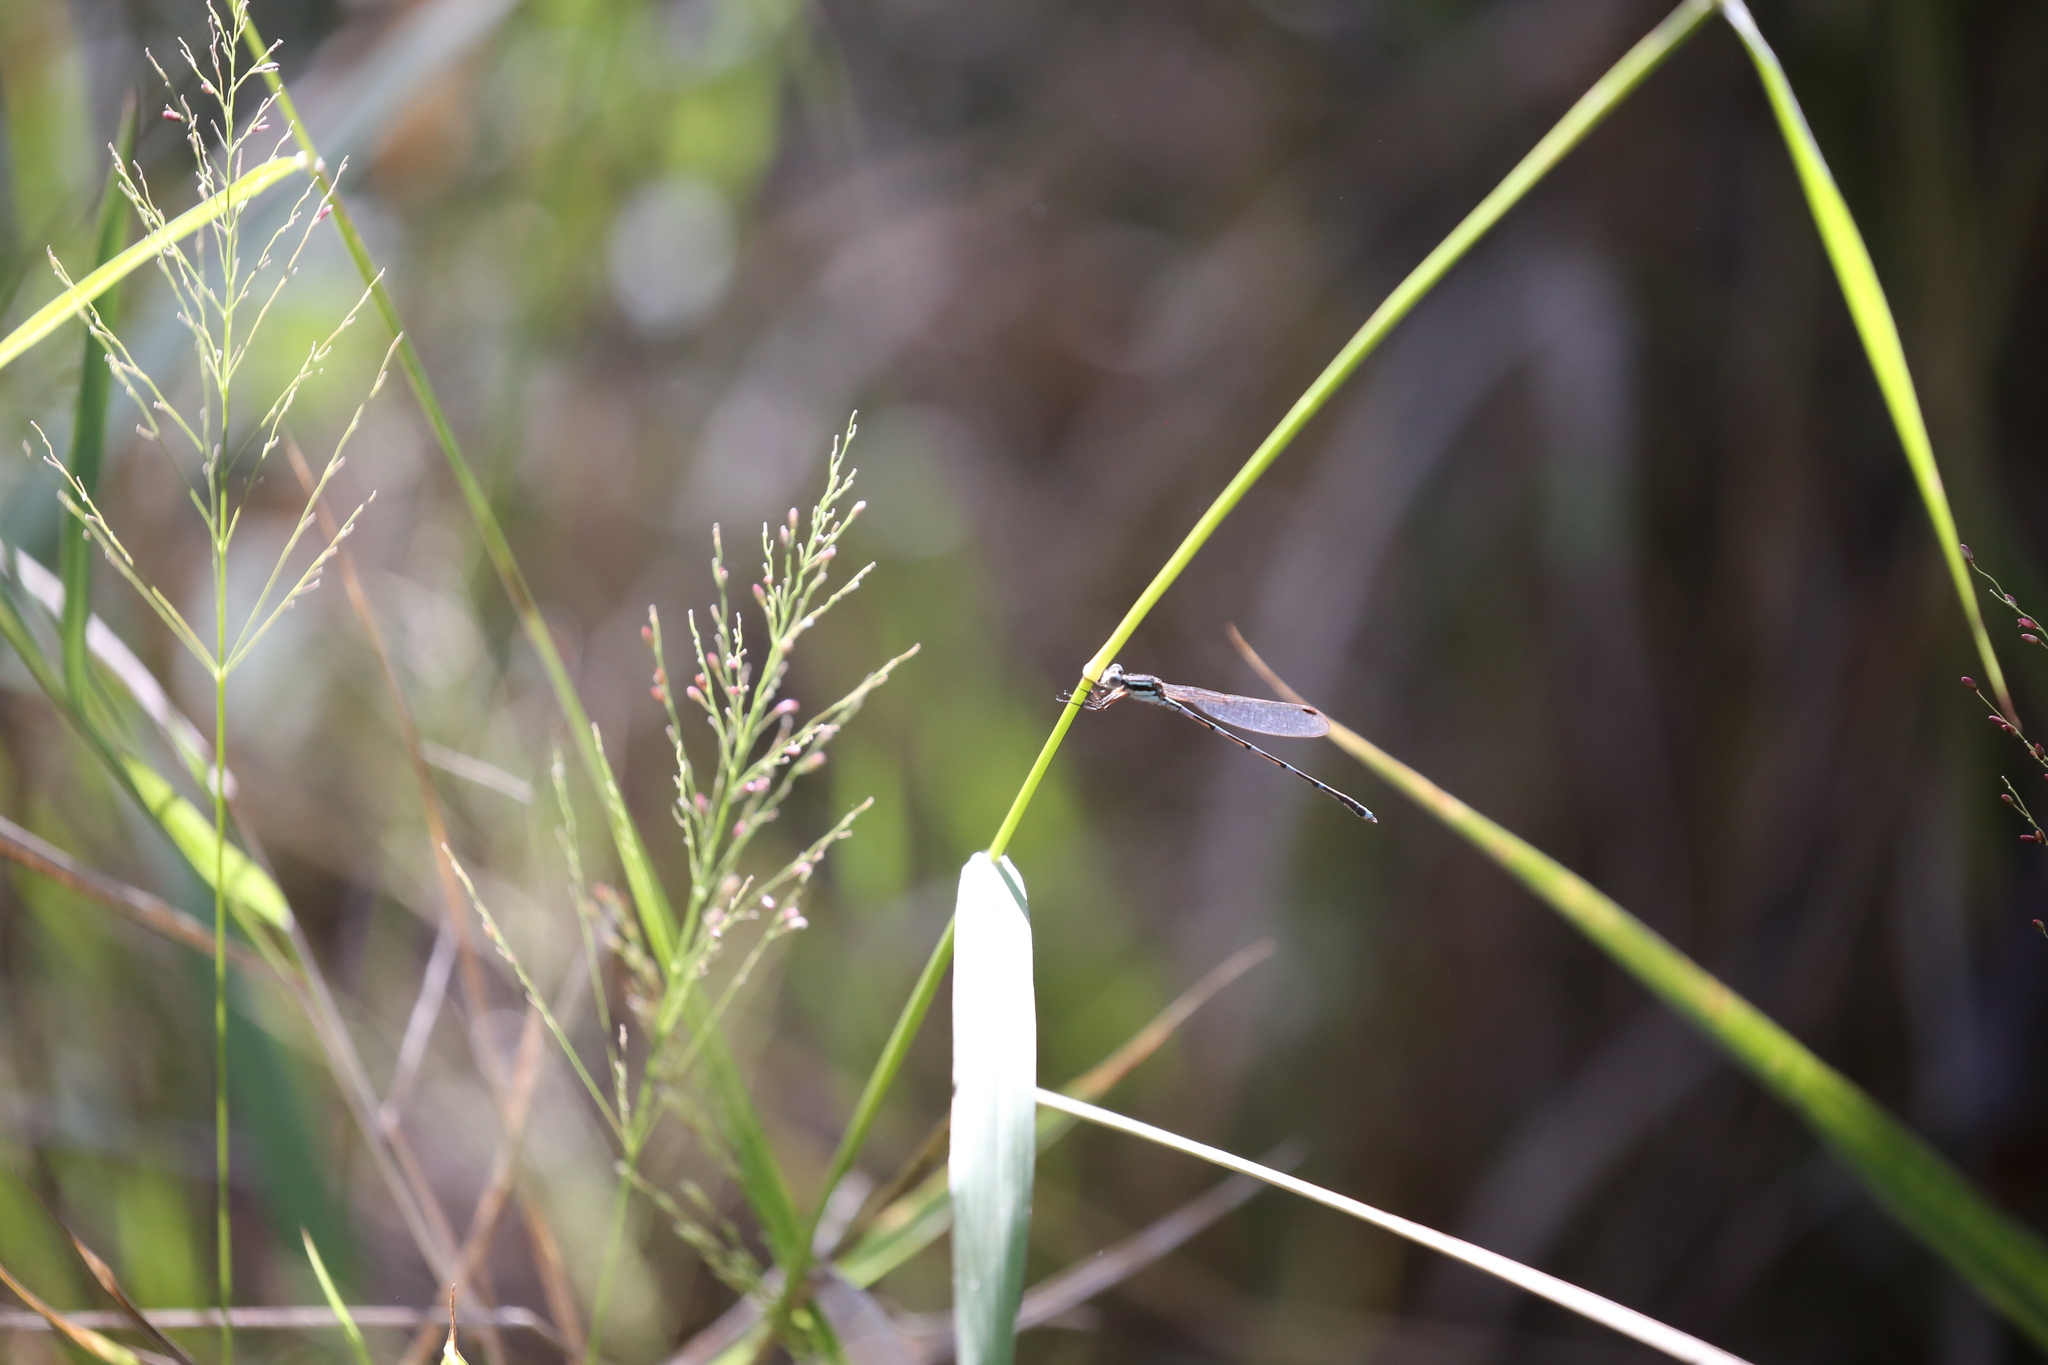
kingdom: Animalia
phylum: Arthropoda
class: Insecta
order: Odonata
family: Lestidae
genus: Austrolestes
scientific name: Austrolestes leda
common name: Wandering ringtail
